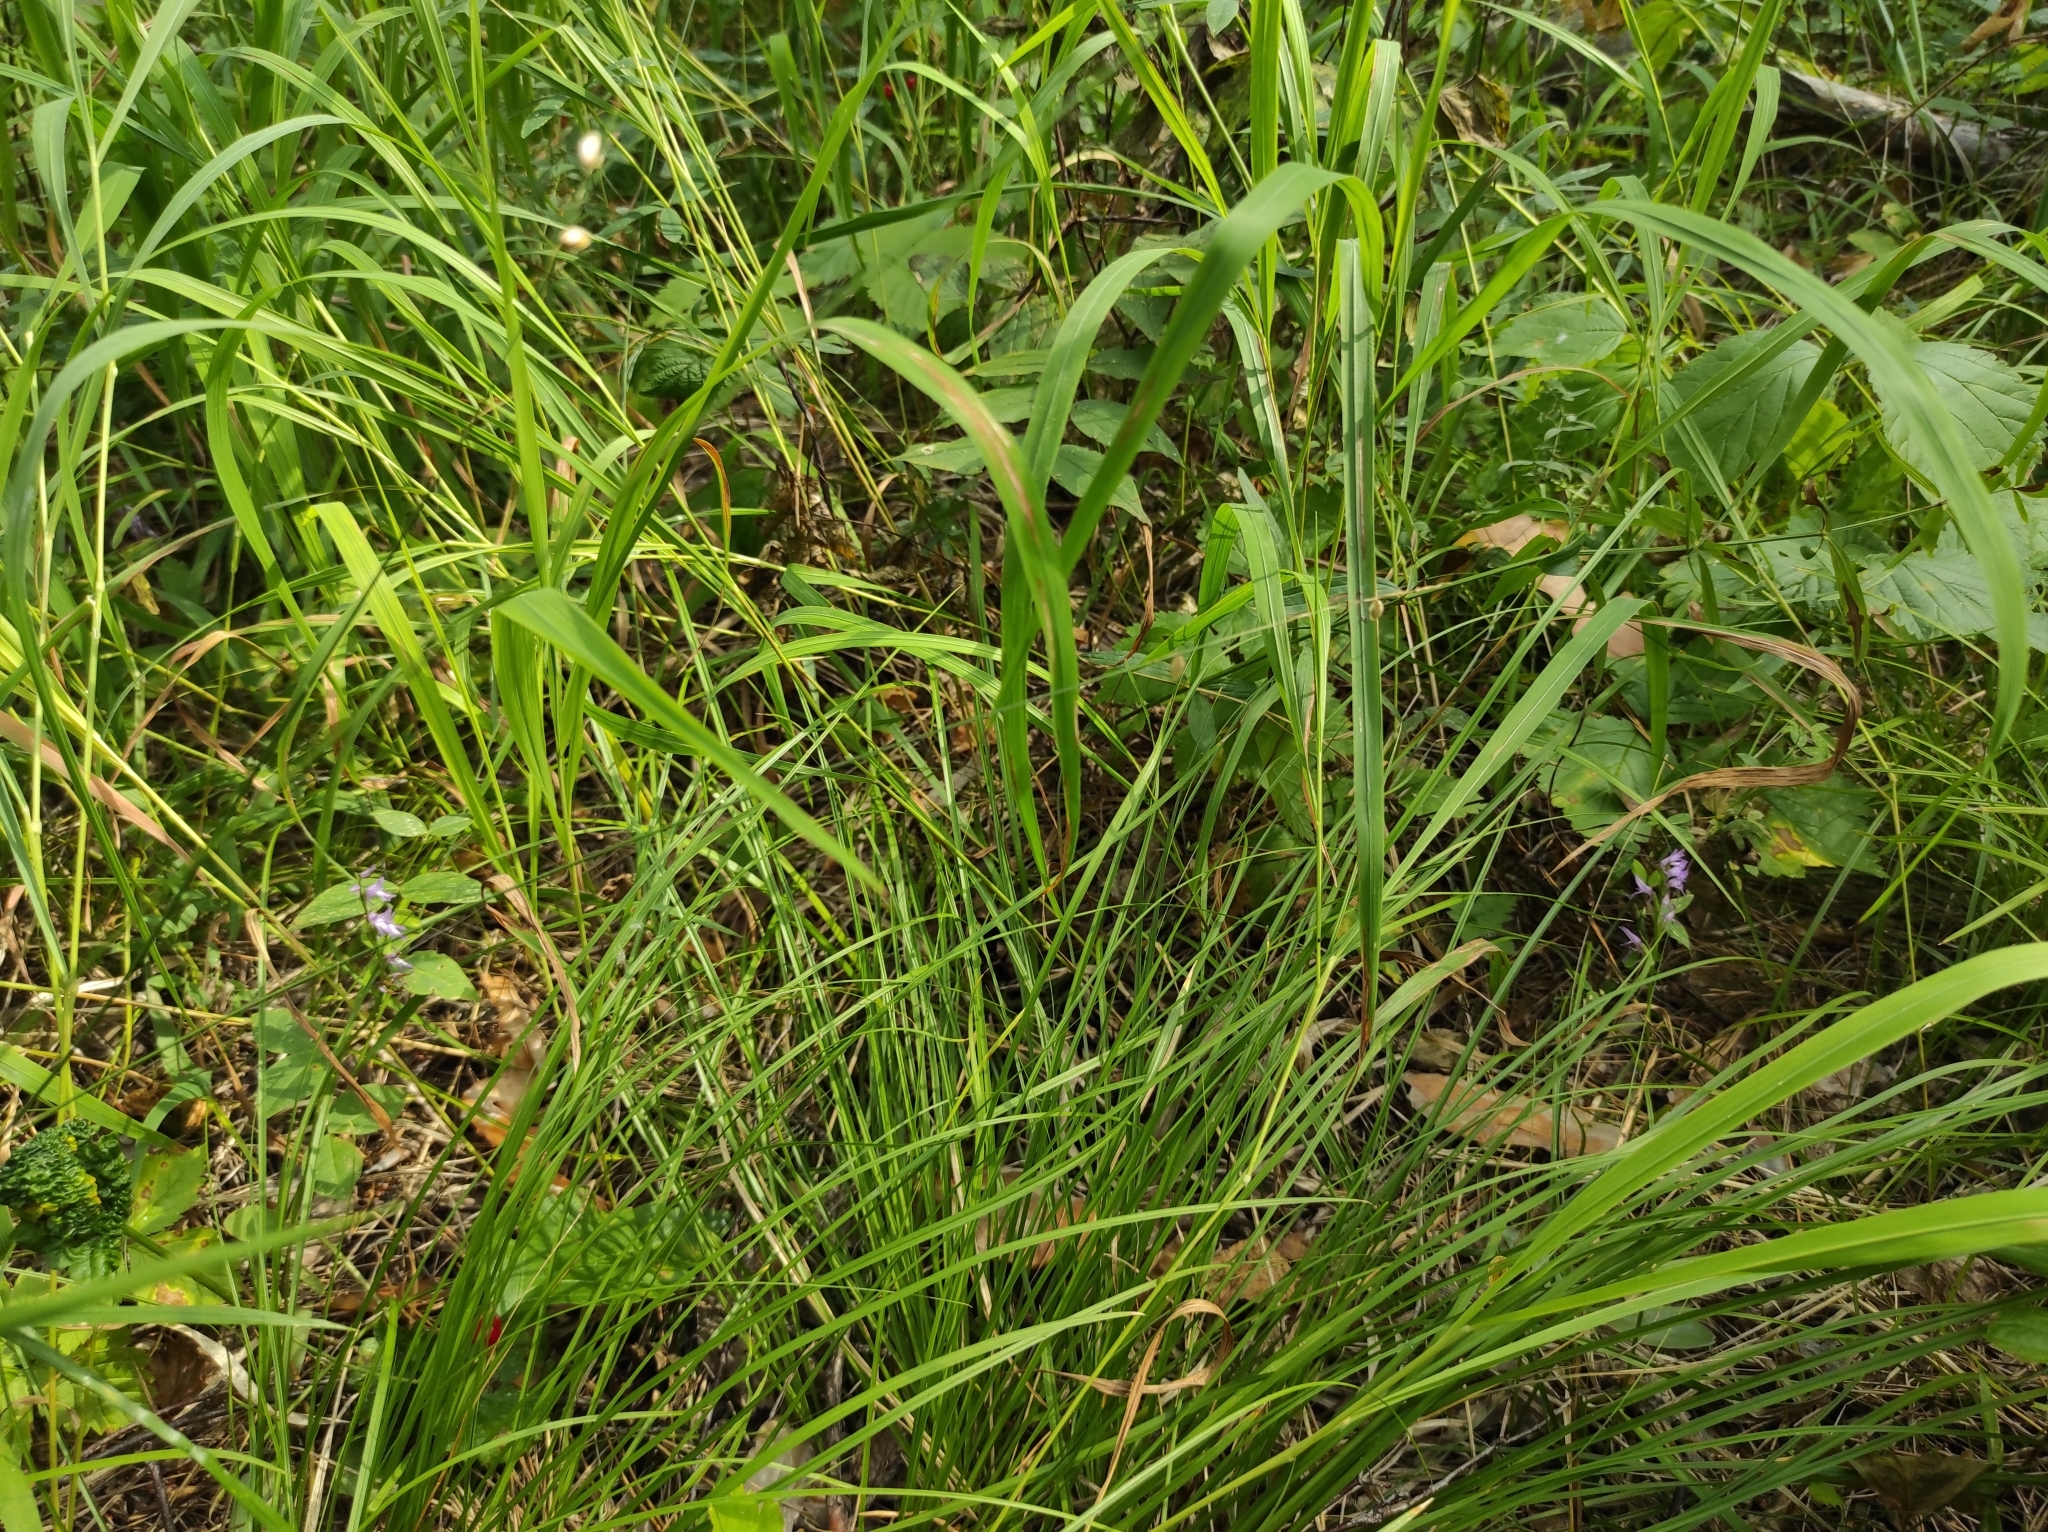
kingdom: Plantae
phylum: Tracheophyta
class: Liliopsida
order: Asparagales
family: Orchidaceae
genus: Hemipilia
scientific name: Hemipilia cucullata
